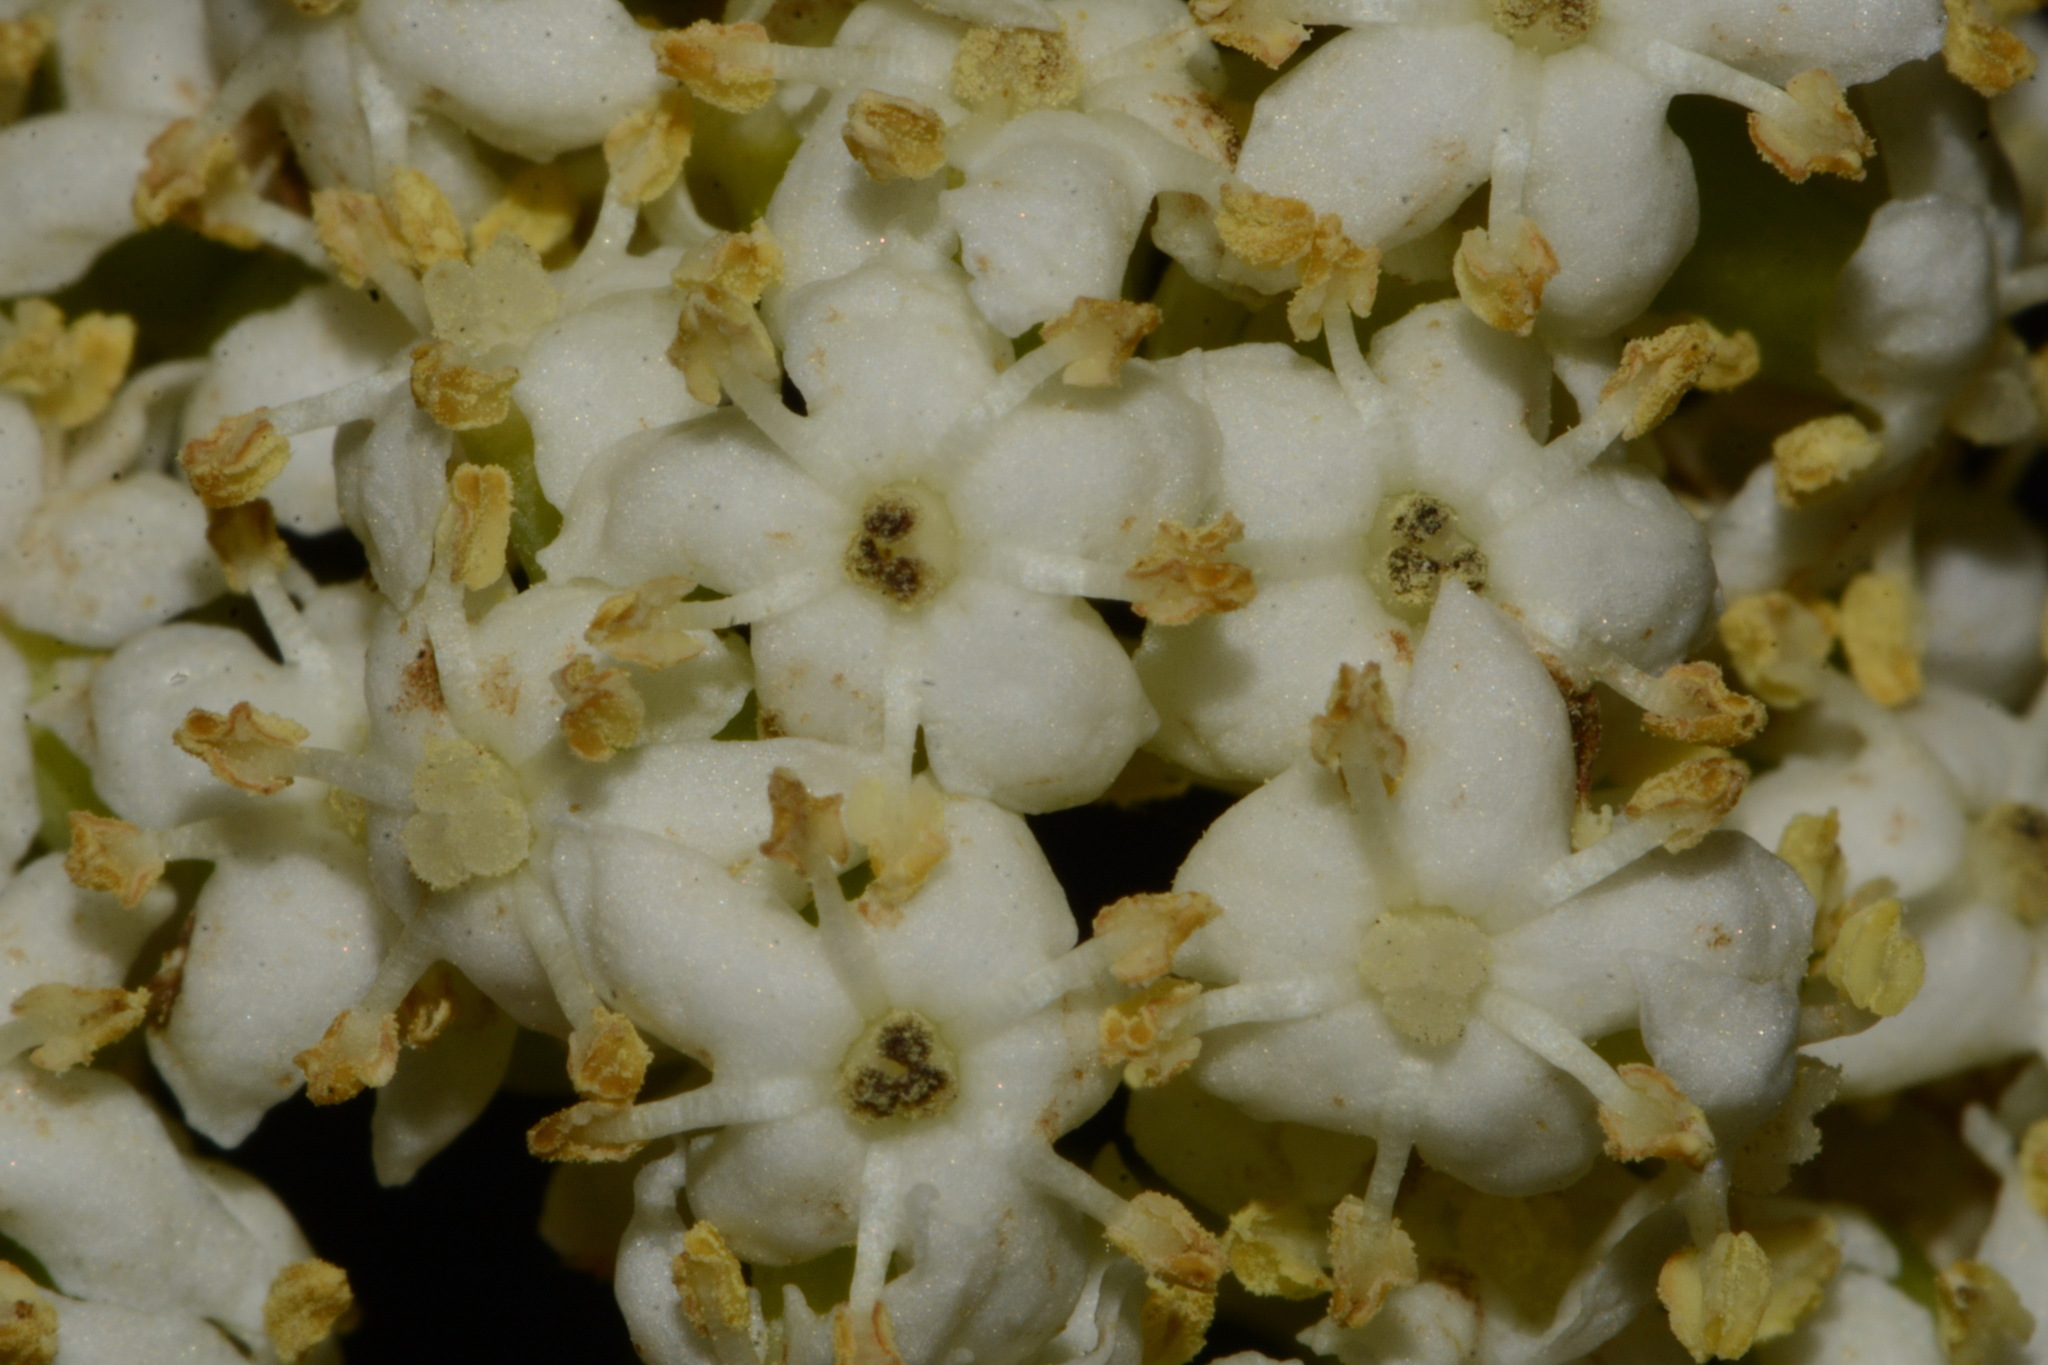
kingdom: Plantae
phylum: Tracheophyta
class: Magnoliopsida
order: Dipsacales
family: Viburnaceae
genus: Sambucus
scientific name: Sambucus racemosa
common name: Red-berried elder
